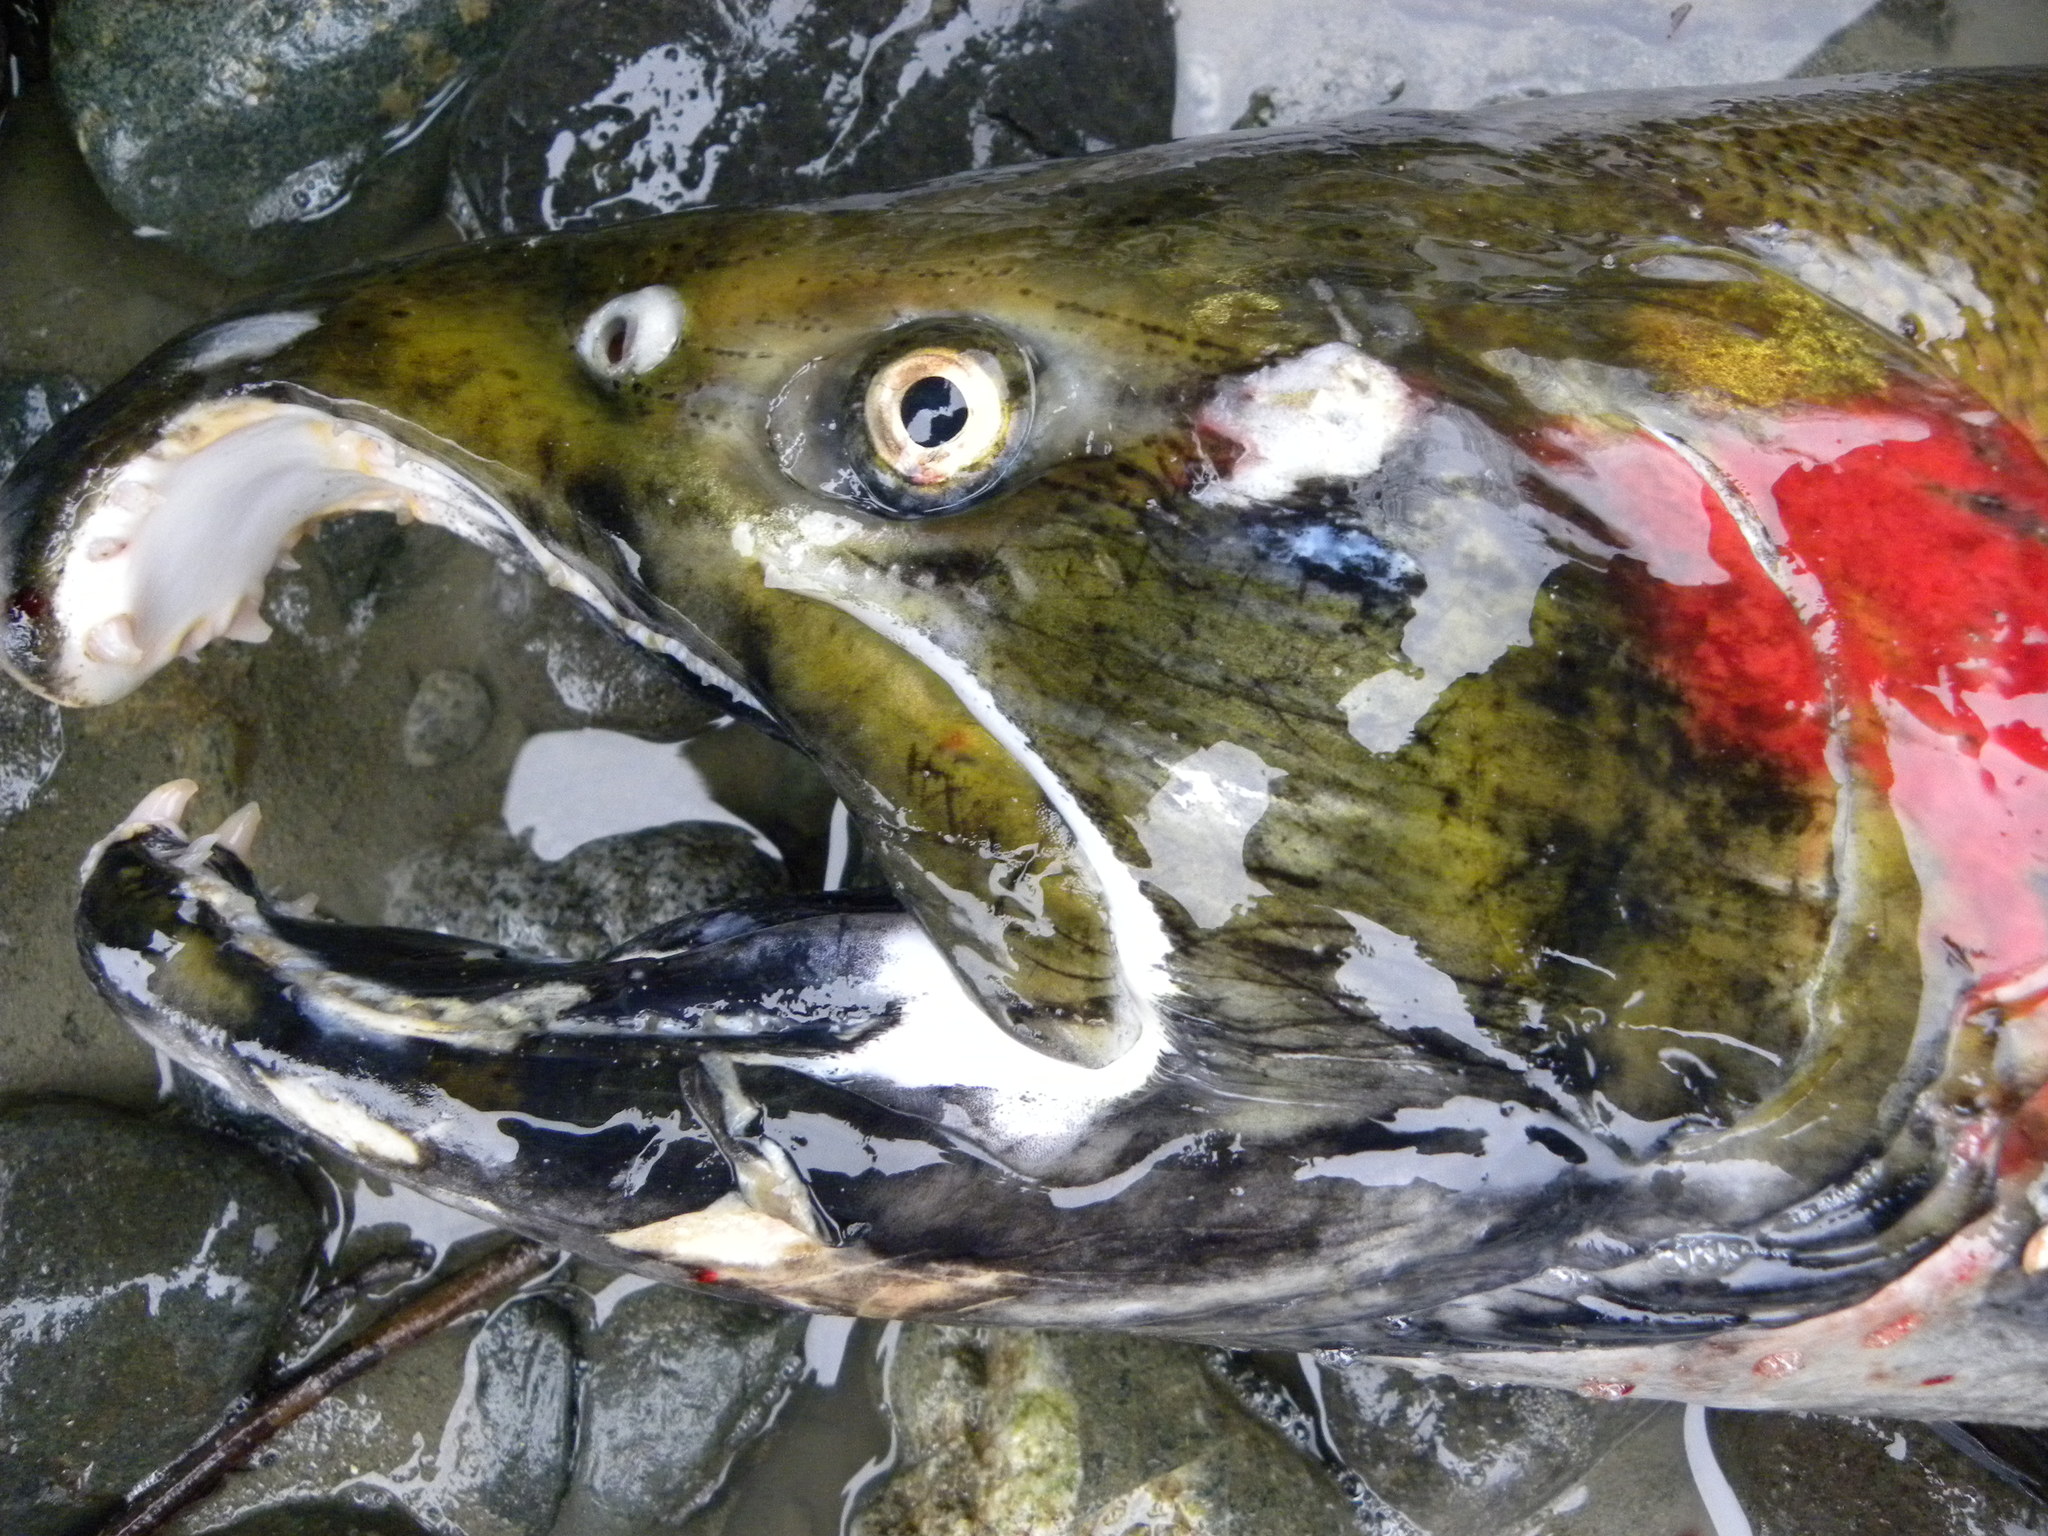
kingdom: Animalia
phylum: Chordata
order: Salmoniformes
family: Salmonidae
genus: Oncorhynchus
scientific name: Oncorhynchus kisutch
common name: Coho salmon
